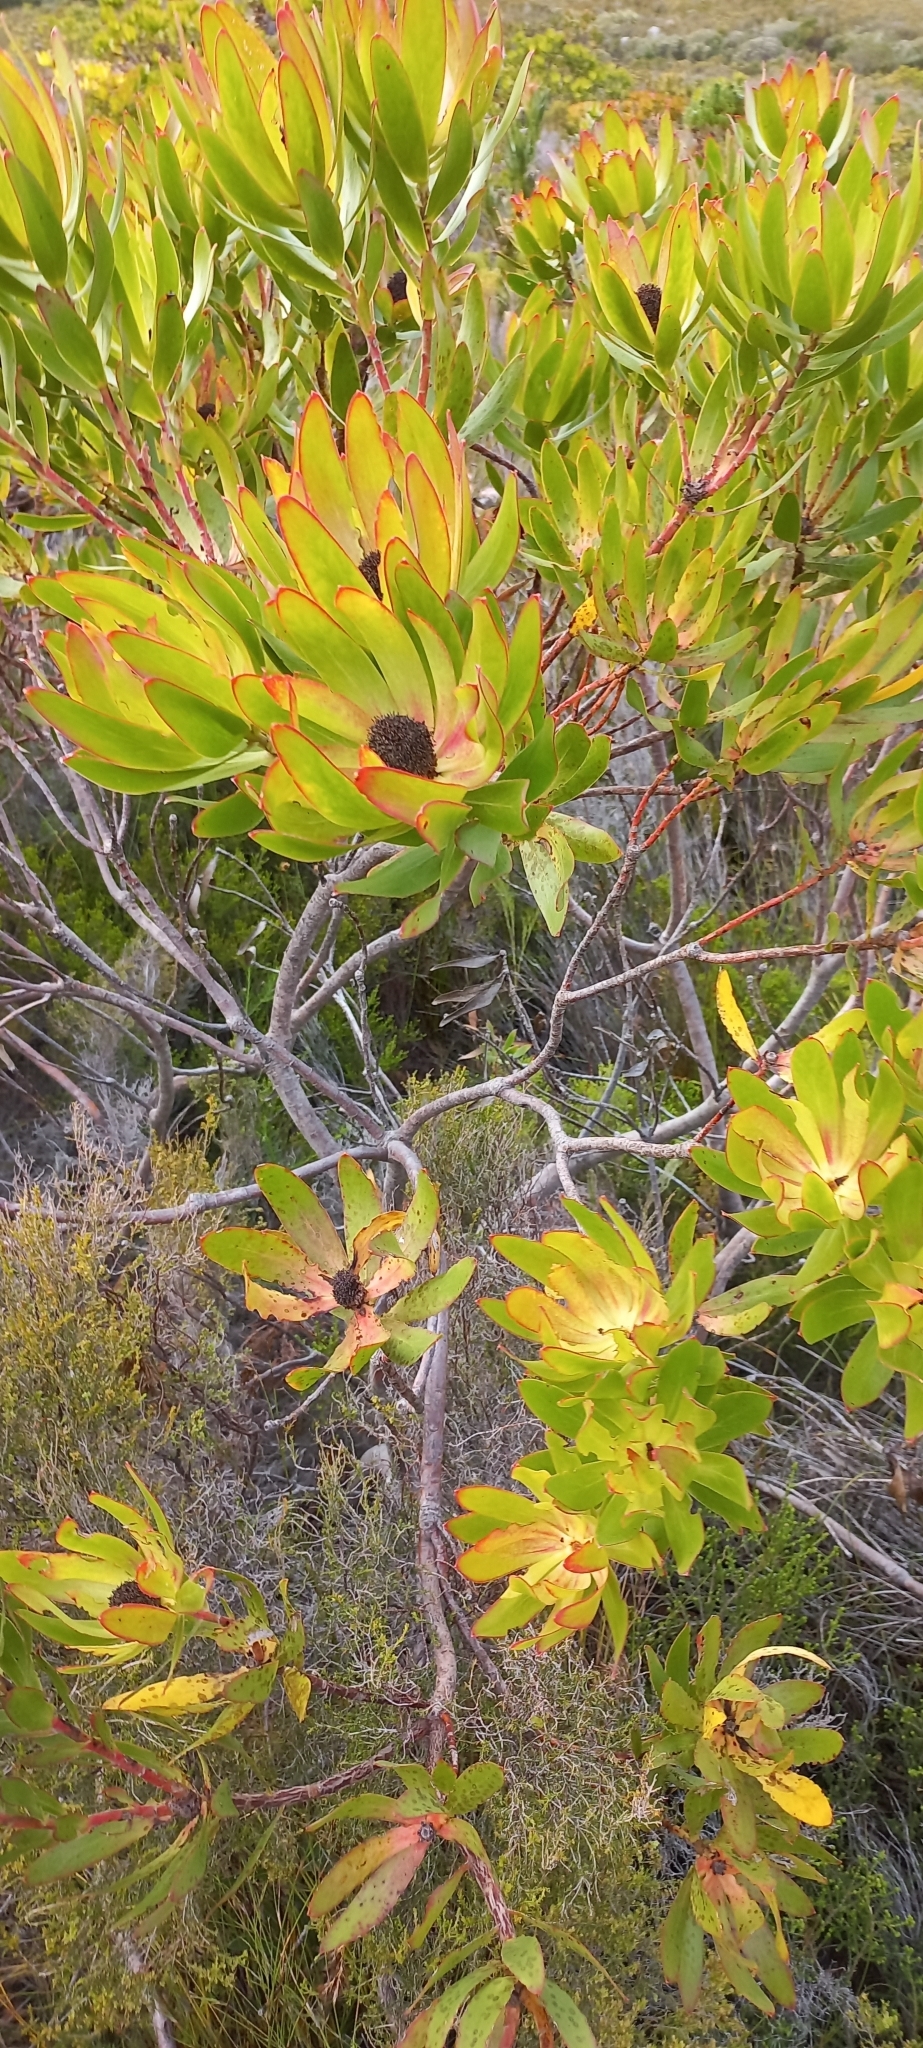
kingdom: Plantae
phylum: Tracheophyta
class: Magnoliopsida
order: Proteales
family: Proteaceae
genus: Leucadendron
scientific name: Leucadendron gandogeri
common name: Broad-leaf conebush
